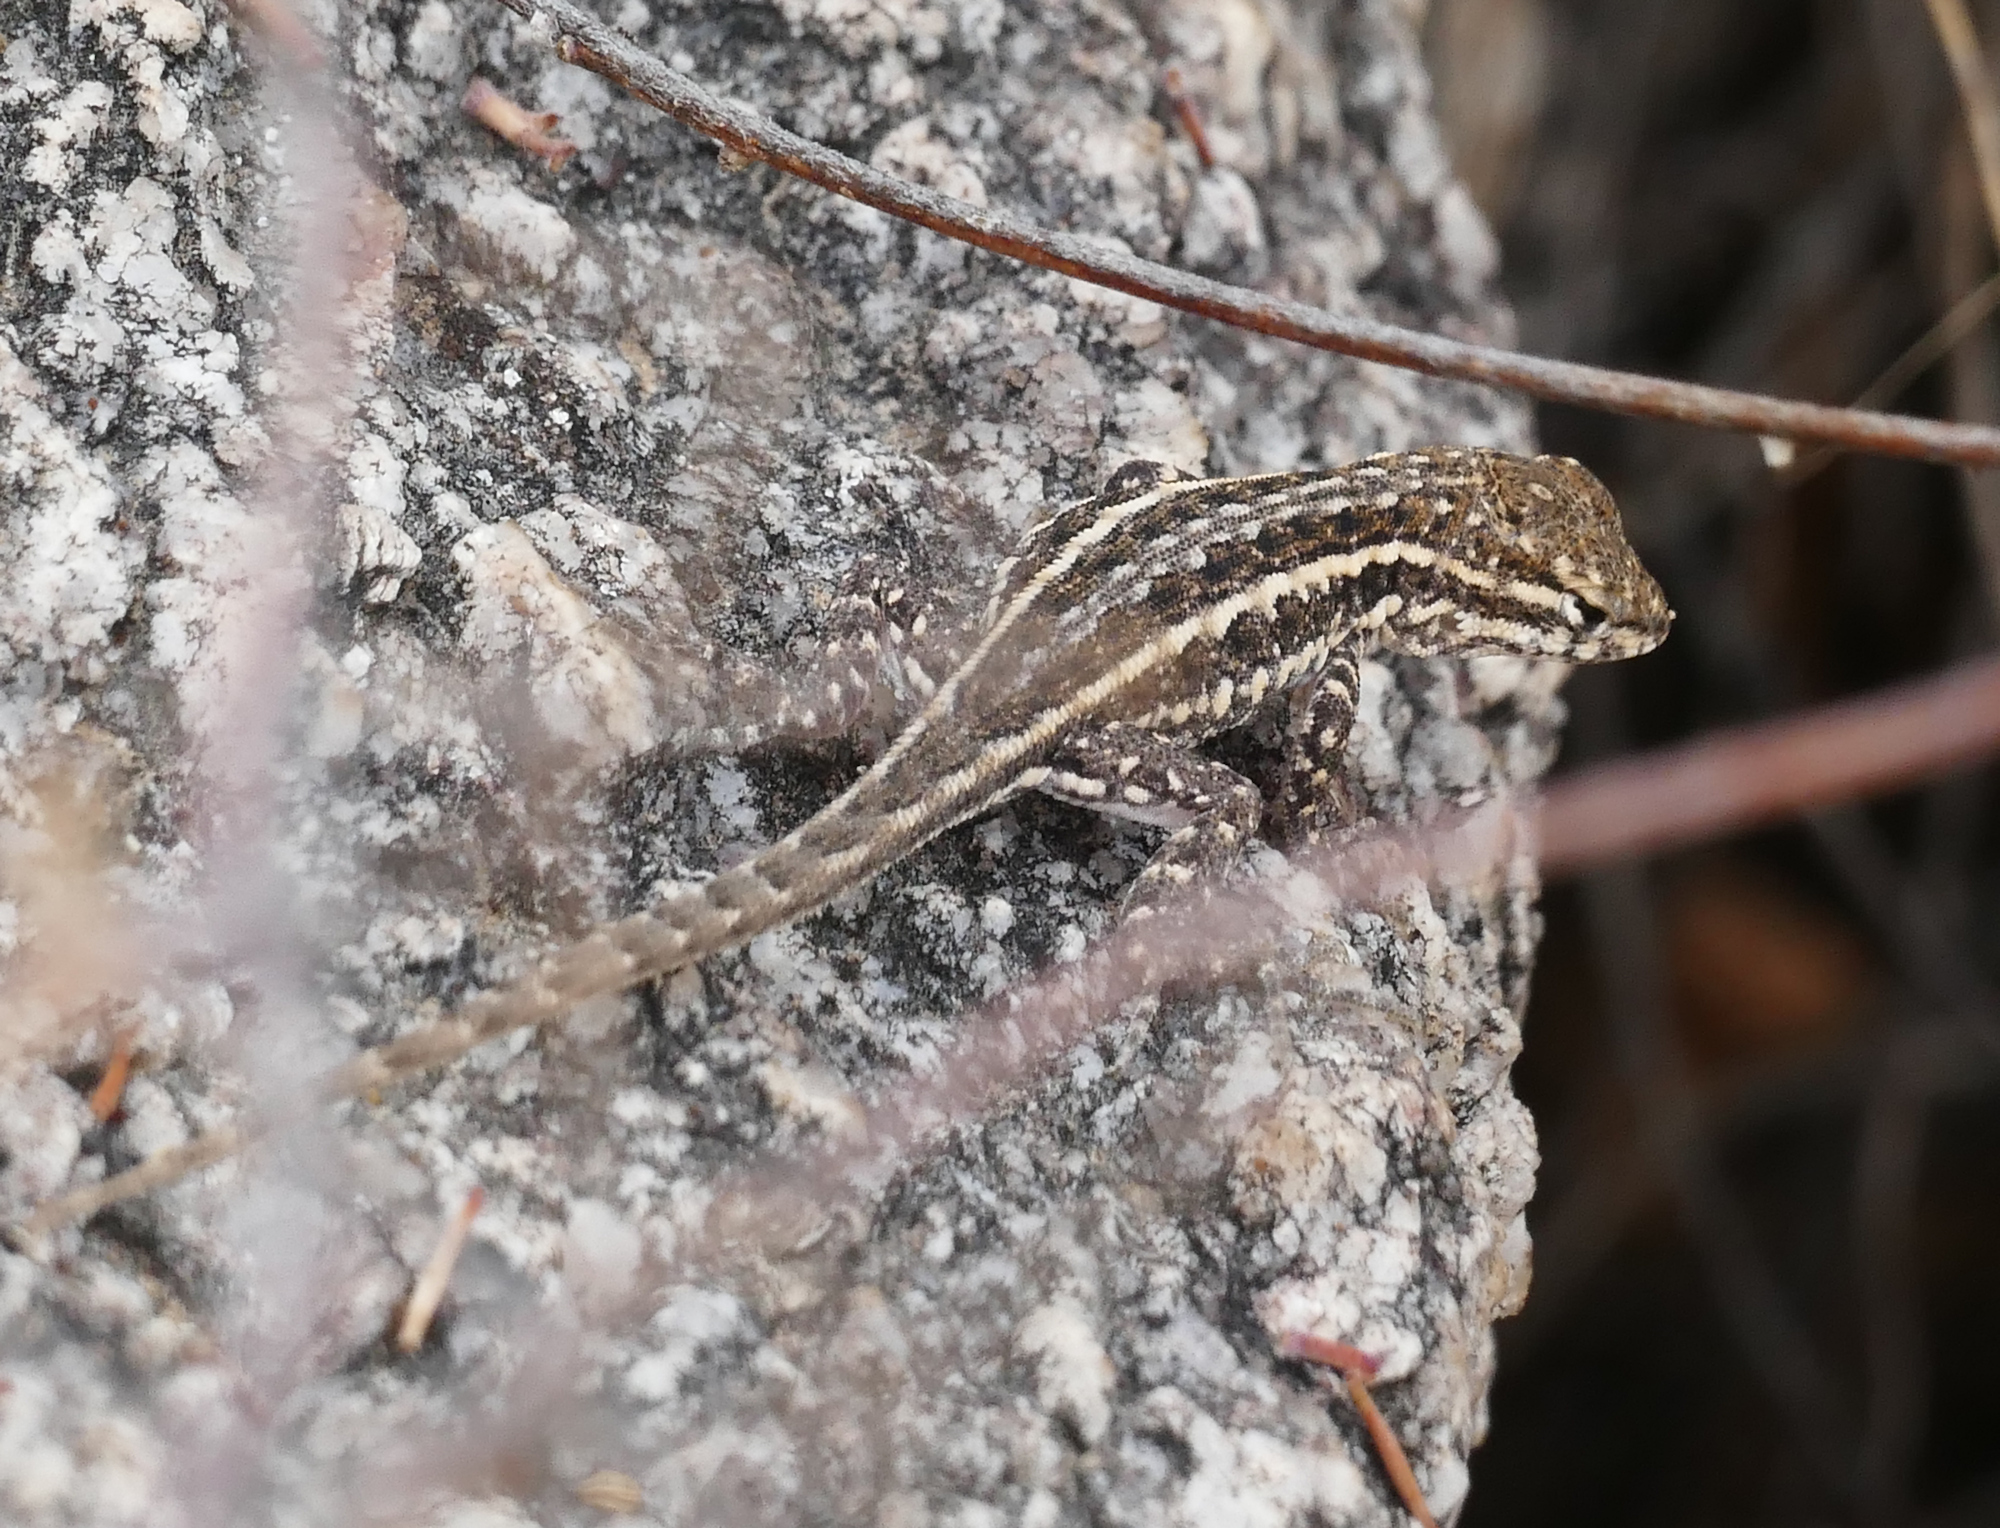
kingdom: Animalia
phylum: Chordata
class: Squamata
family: Phrynosomatidae
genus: Uta
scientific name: Uta stansburiana
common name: Side-blotched lizard
